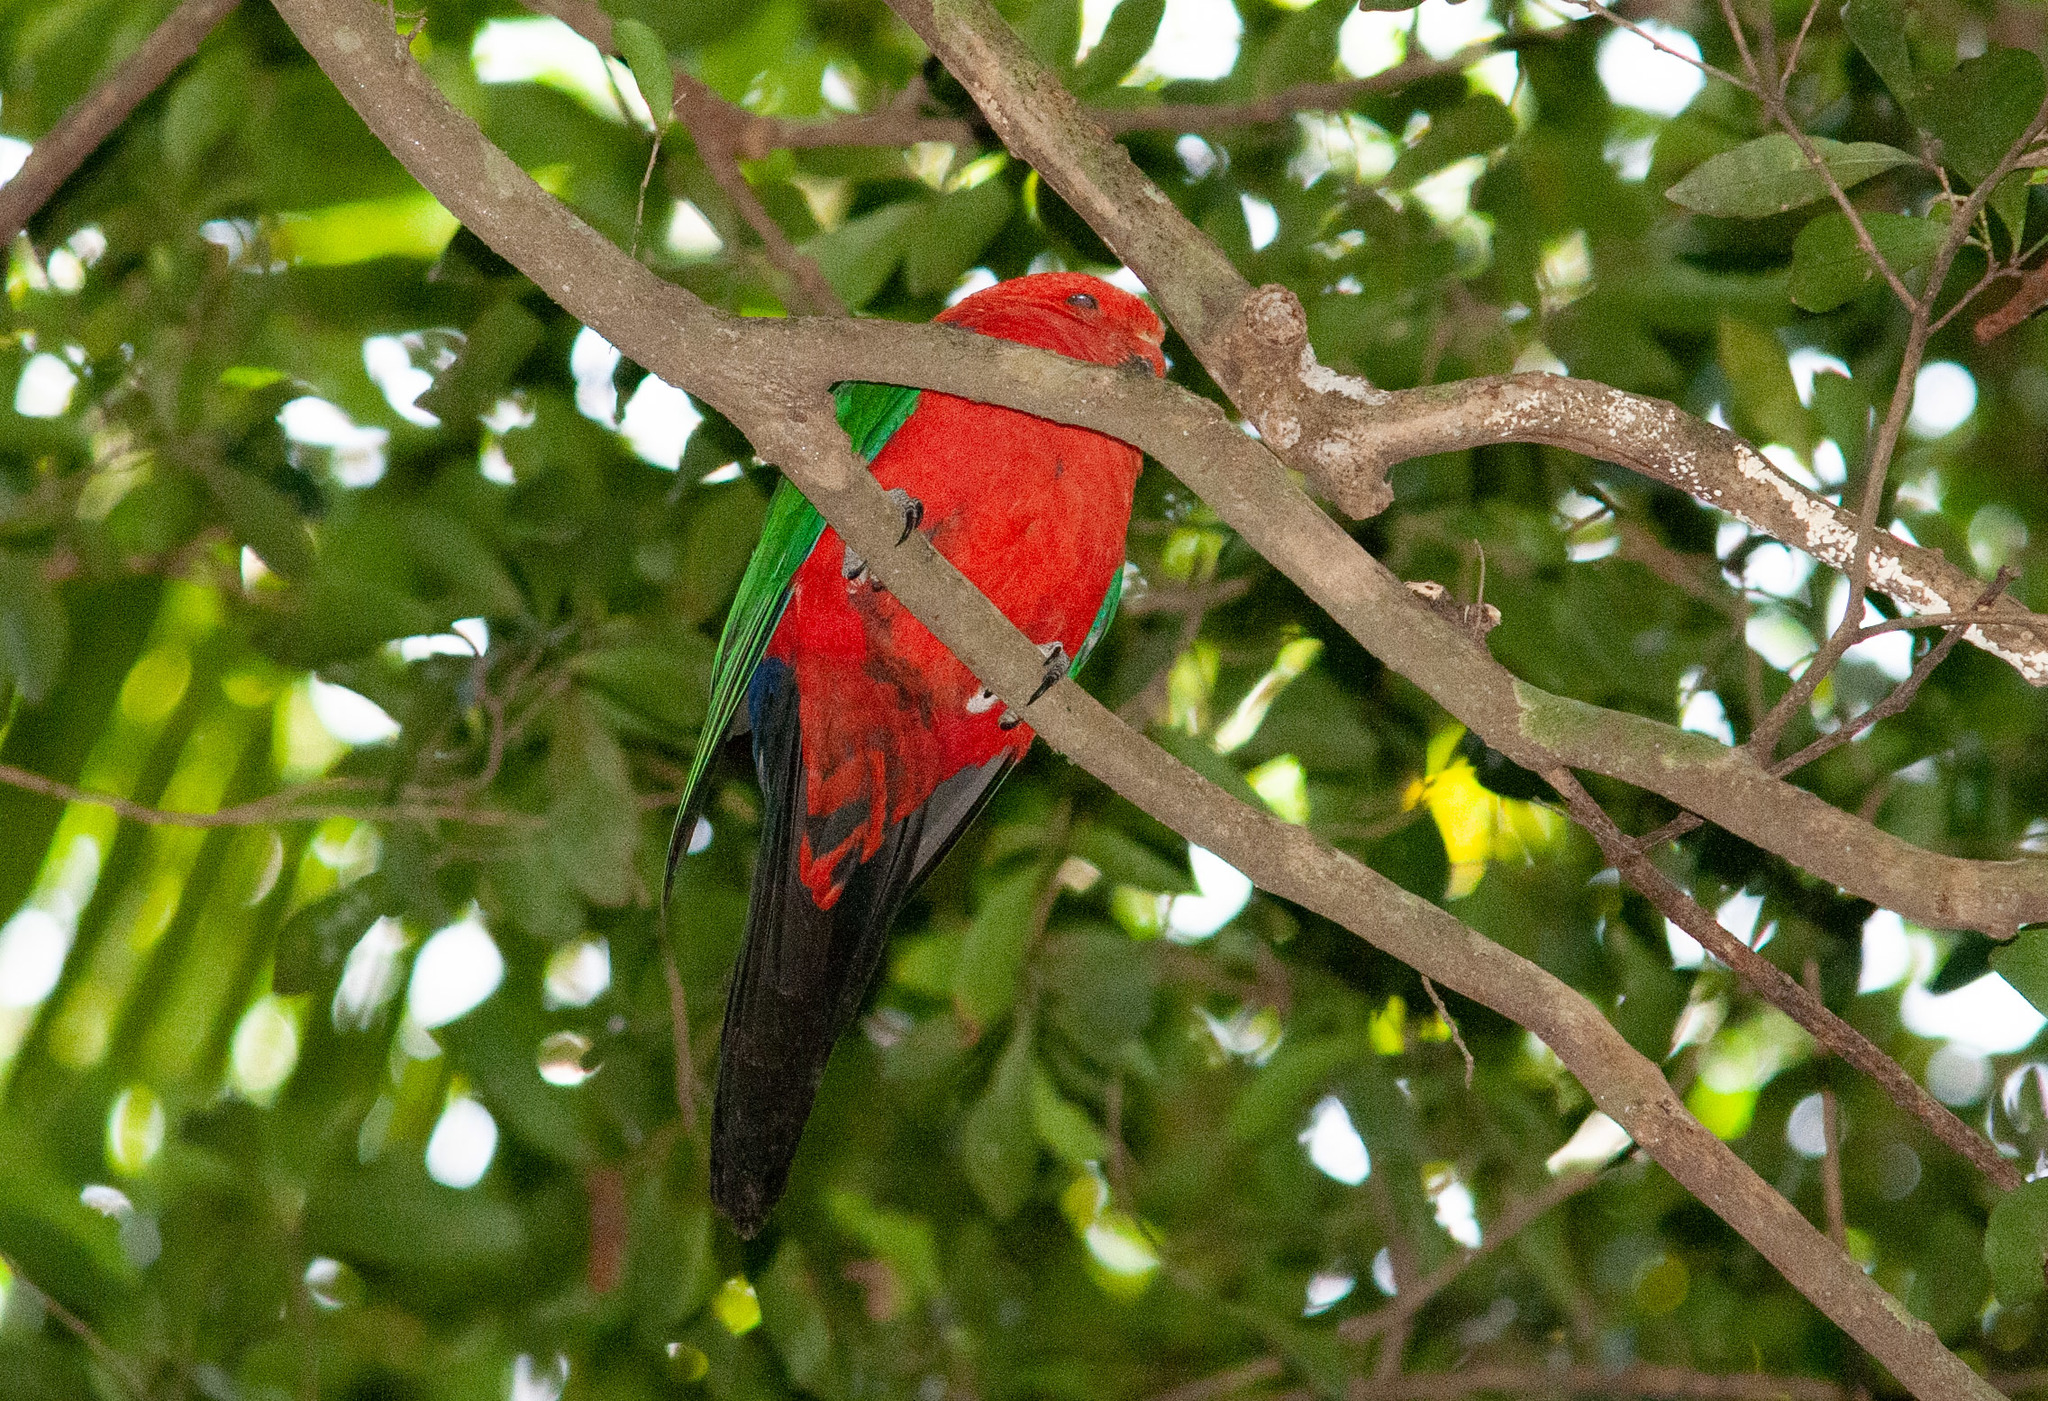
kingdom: Animalia
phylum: Chordata
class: Aves
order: Psittaciformes
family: Psittacidae
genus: Alisterus
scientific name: Alisterus scapularis
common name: Australian king parrot
